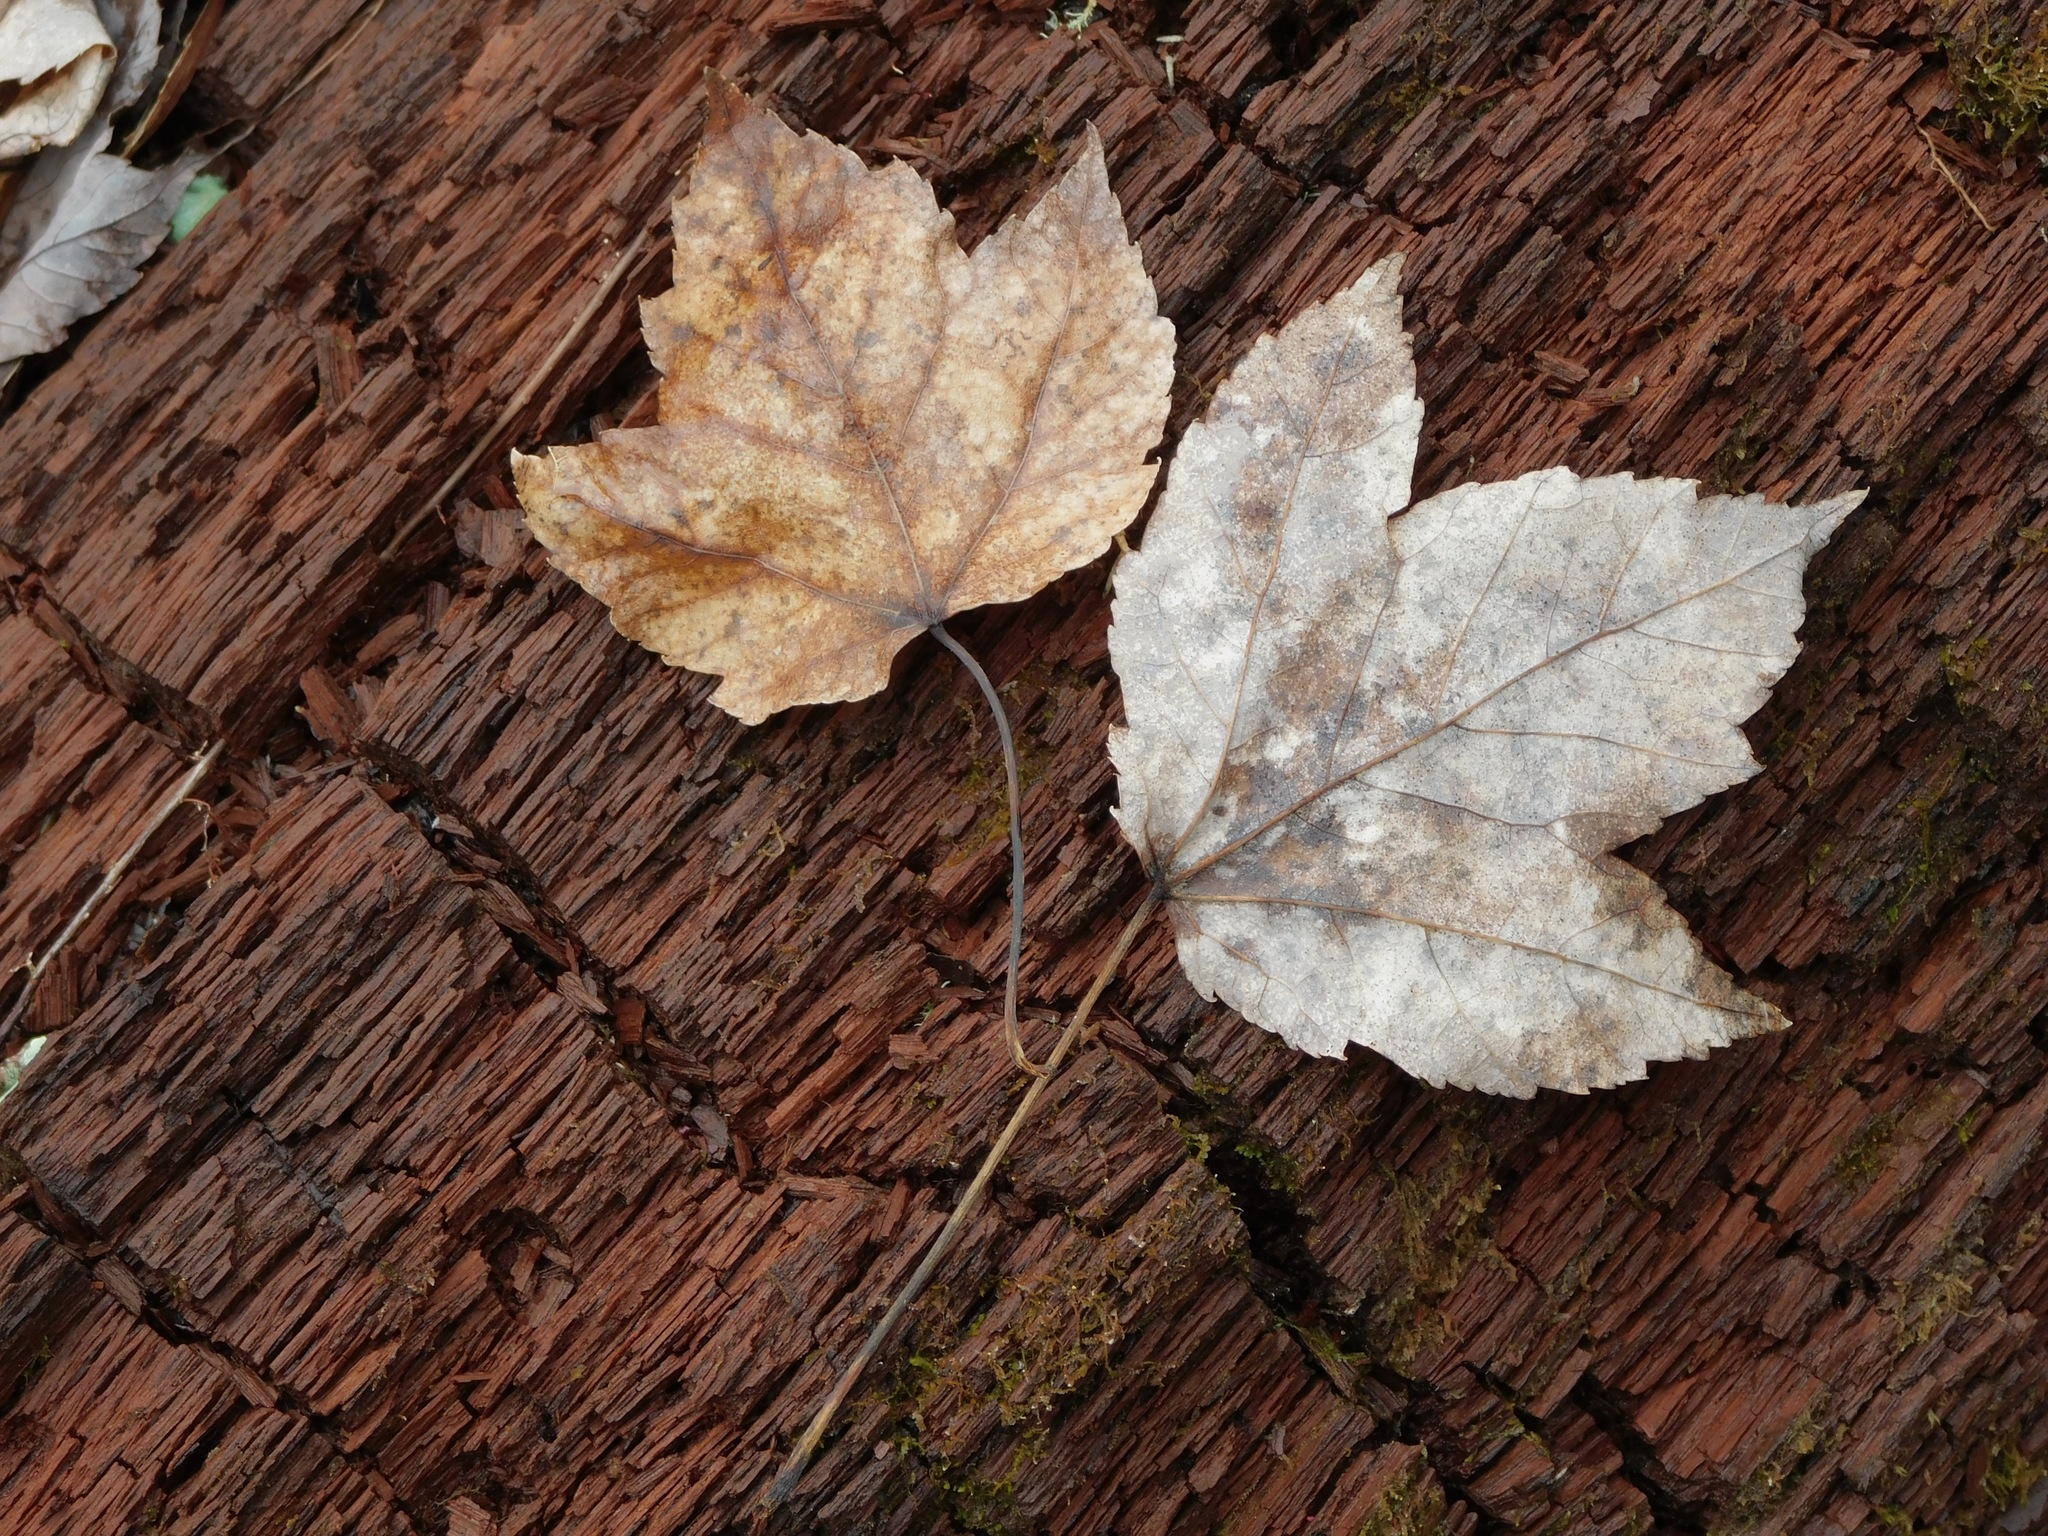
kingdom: Plantae
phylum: Tracheophyta
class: Magnoliopsida
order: Sapindales
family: Sapindaceae
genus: Acer
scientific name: Acer rubrum
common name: Red maple
